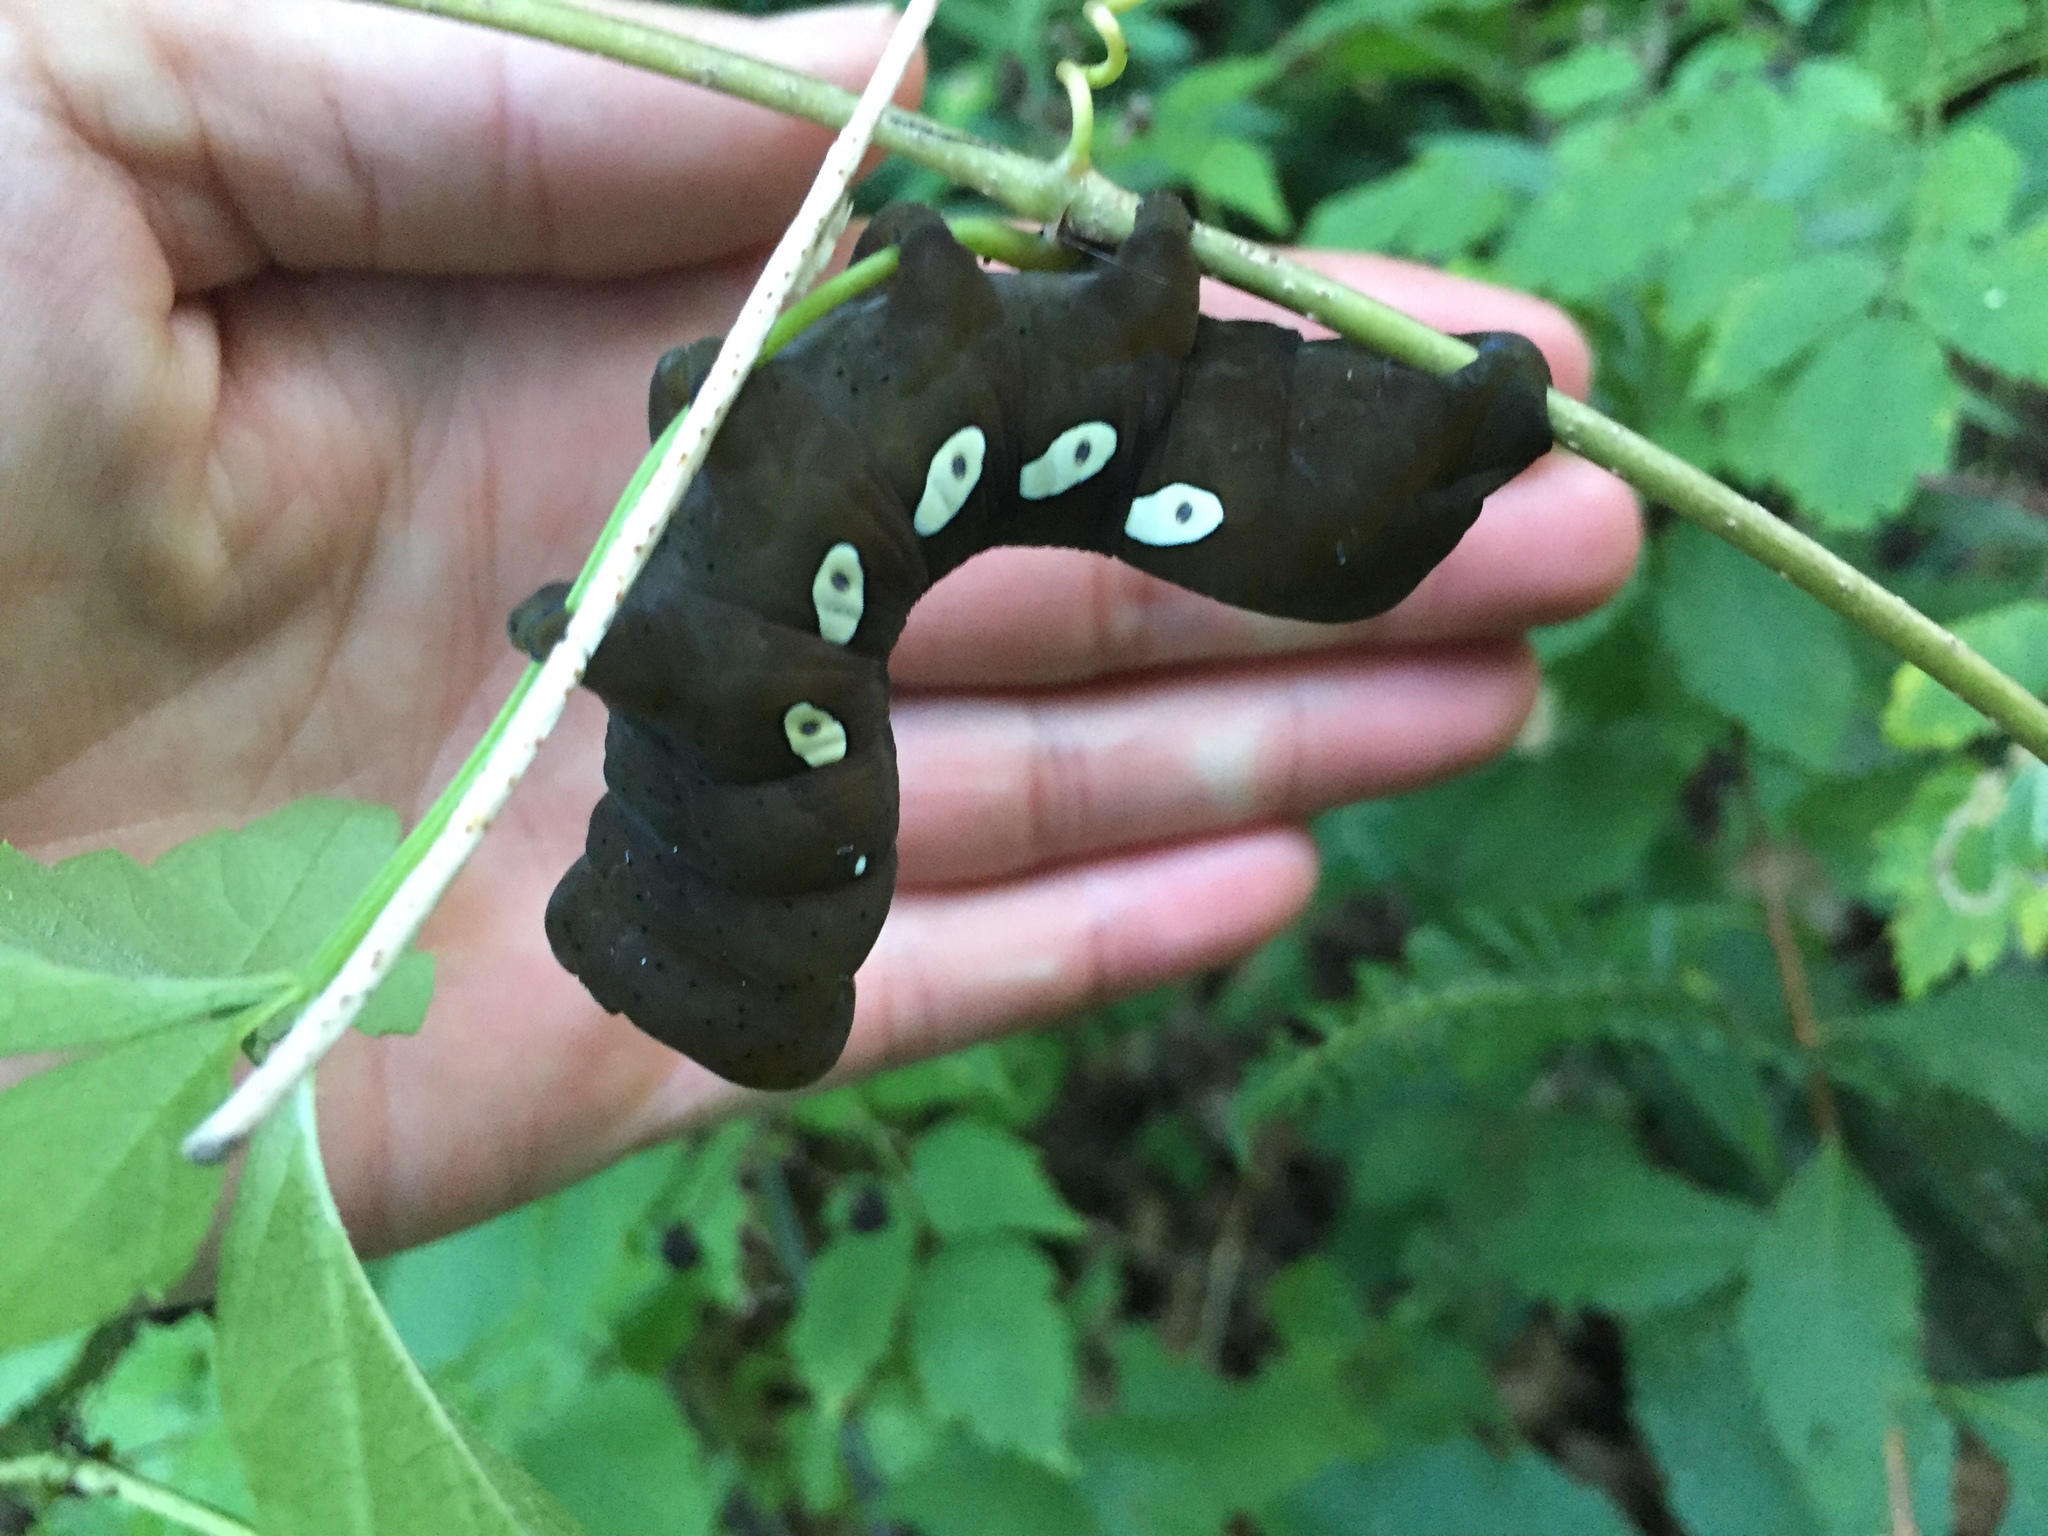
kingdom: Animalia
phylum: Arthropoda
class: Insecta
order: Lepidoptera
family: Sphingidae
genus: Eumorpha
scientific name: Eumorpha pandorus
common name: Pandora sphinx
